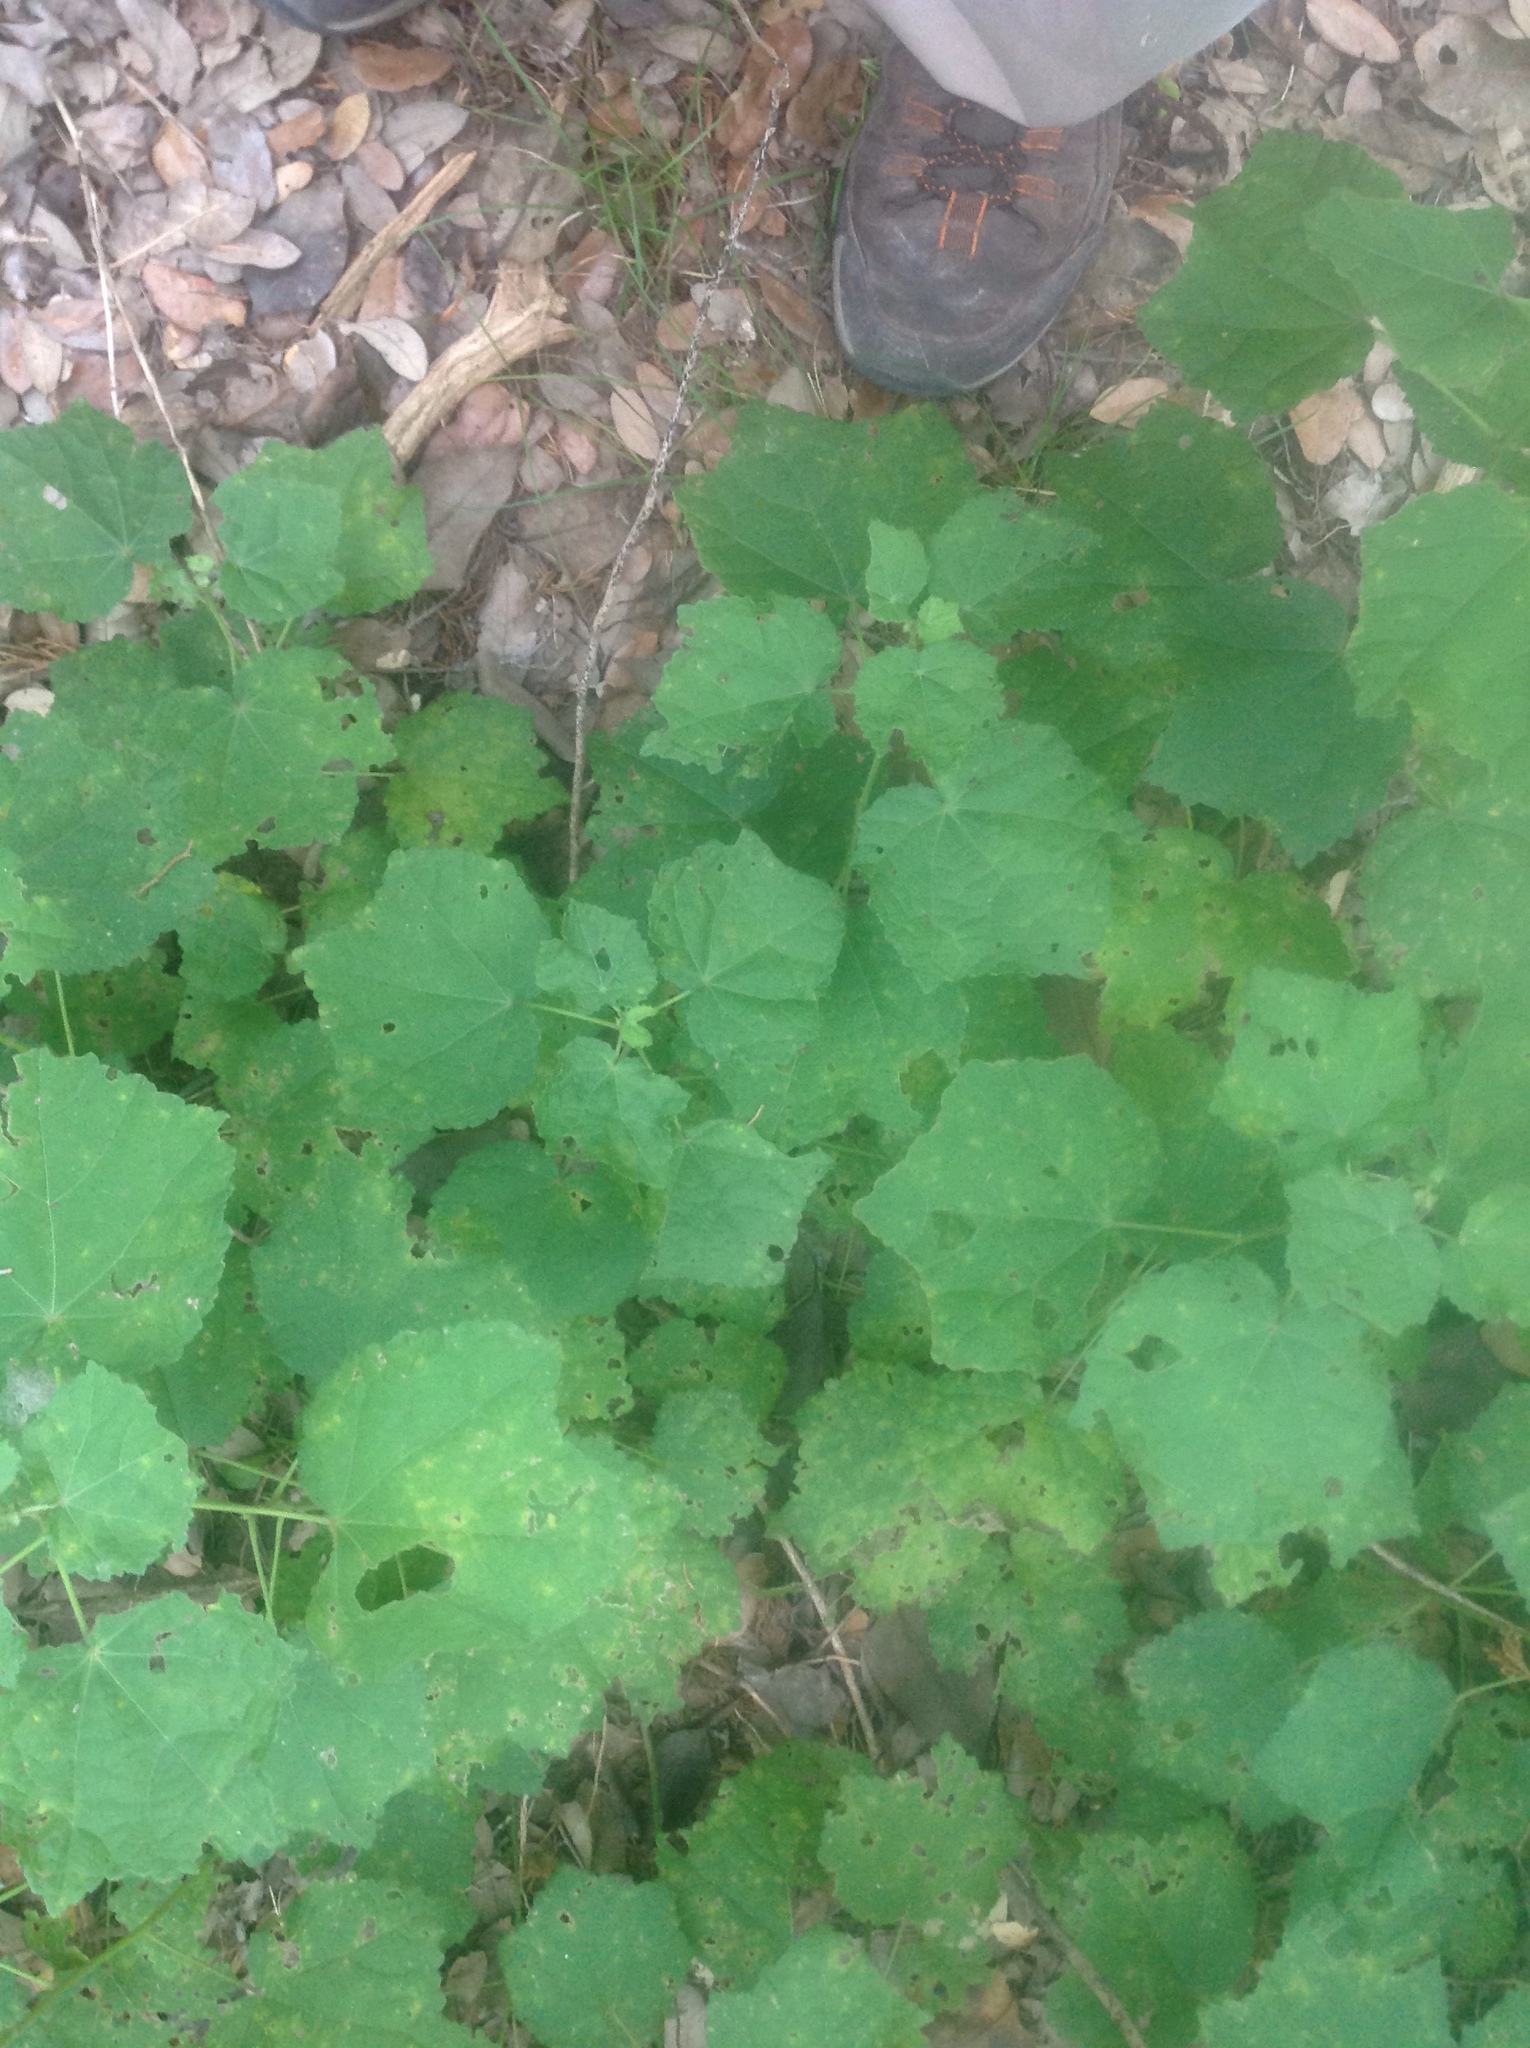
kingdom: Plantae
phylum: Tracheophyta
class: Magnoliopsida
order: Malvales
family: Malvaceae
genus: Malvaviscus
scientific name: Malvaviscus arboreus
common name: Wax mallow
